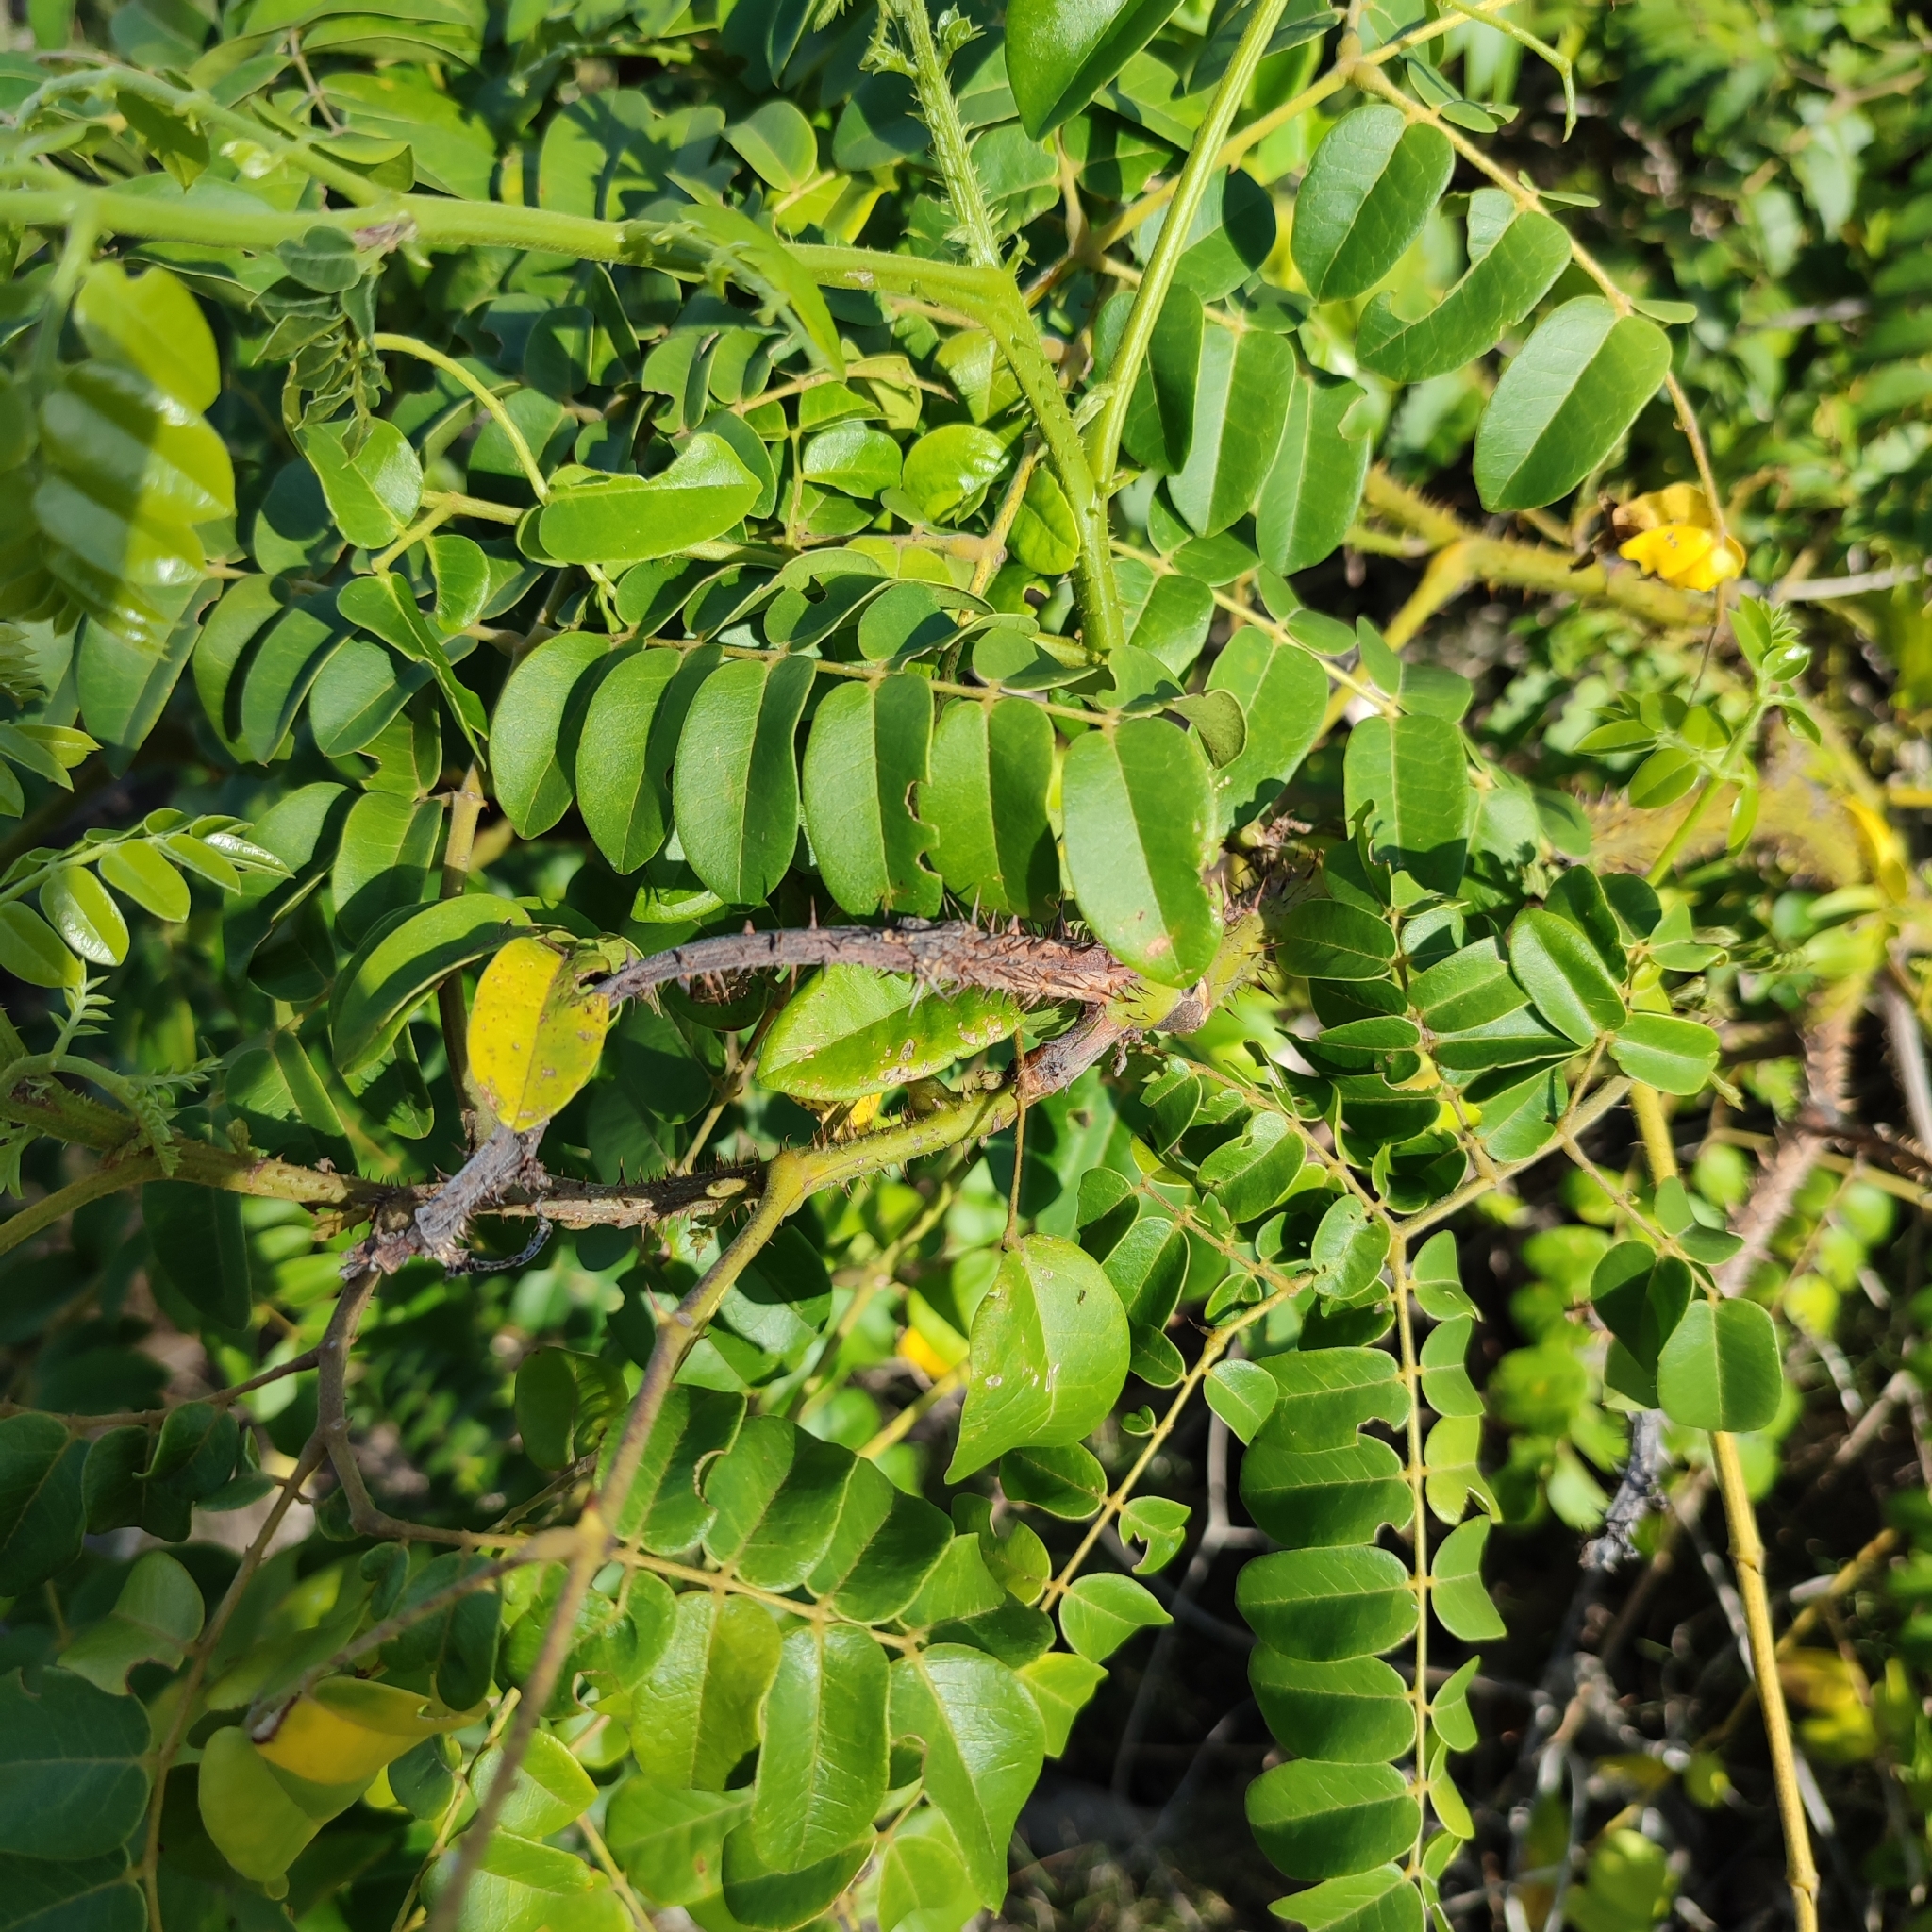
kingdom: Plantae
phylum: Tracheophyta
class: Magnoliopsida
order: Fabales
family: Fabaceae
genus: Guilandina
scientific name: Guilandina bonduc
